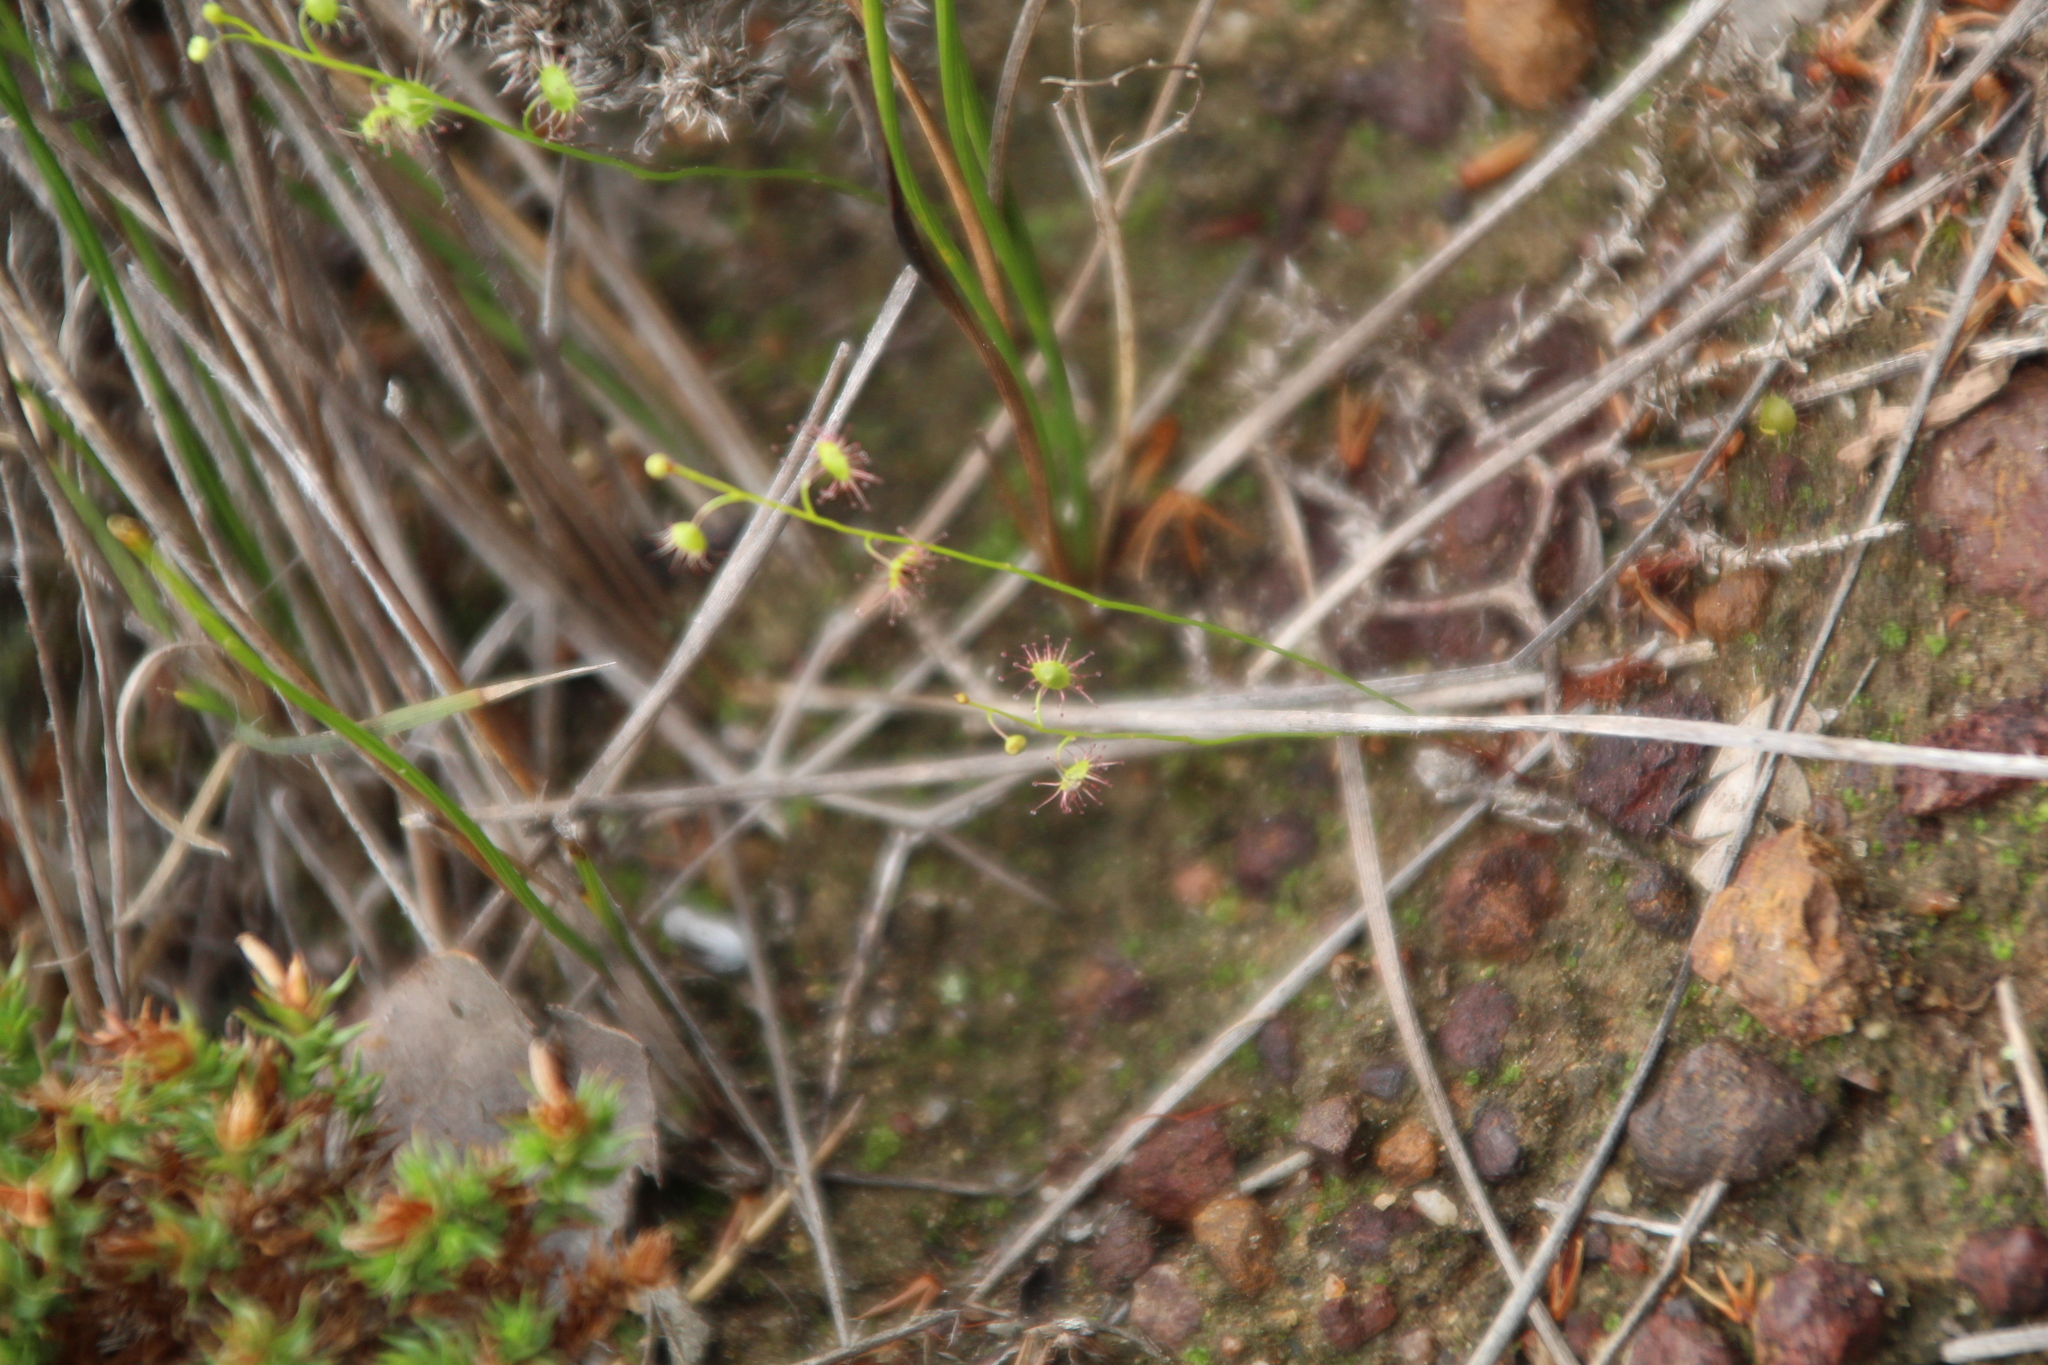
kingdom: Plantae
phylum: Tracheophyta
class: Magnoliopsida
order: Caryophyllales
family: Droseraceae
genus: Drosera
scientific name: Drosera microphylla
